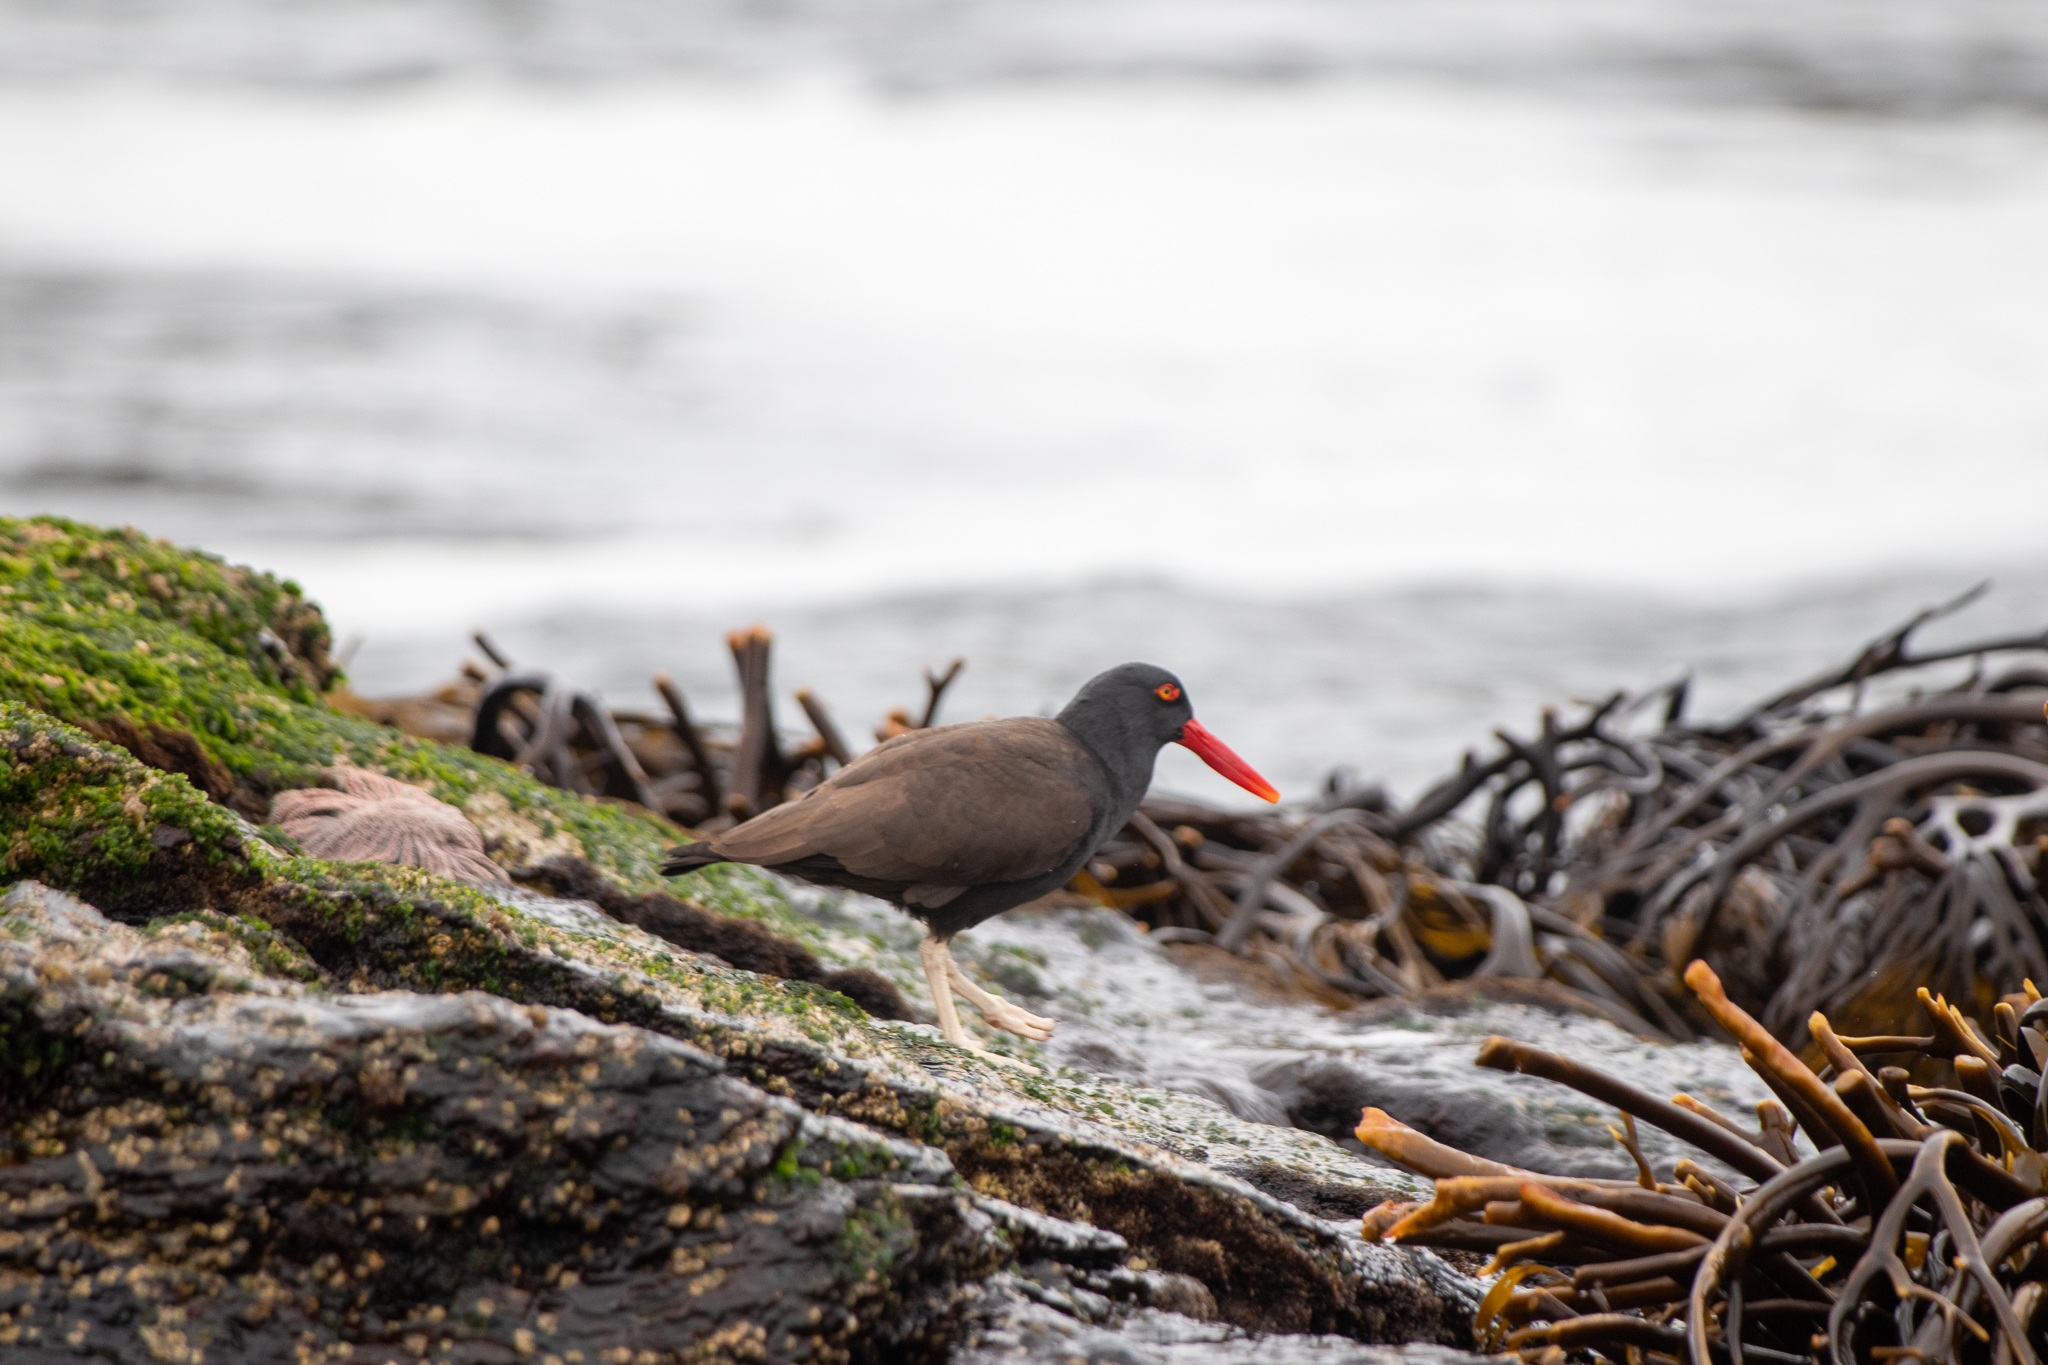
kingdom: Animalia
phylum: Chordata
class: Aves
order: Charadriiformes
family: Haematopodidae
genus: Haematopus
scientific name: Haematopus ater
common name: Blackish oystercatcher
